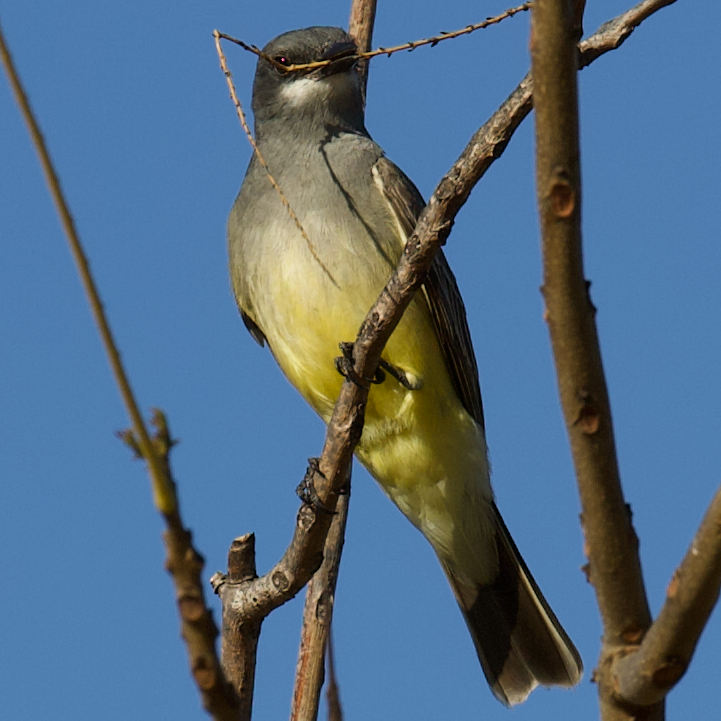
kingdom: Animalia
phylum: Chordata
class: Aves
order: Passeriformes
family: Tyrannidae
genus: Tyrannus
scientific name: Tyrannus vociferans
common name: Cassin's kingbird
